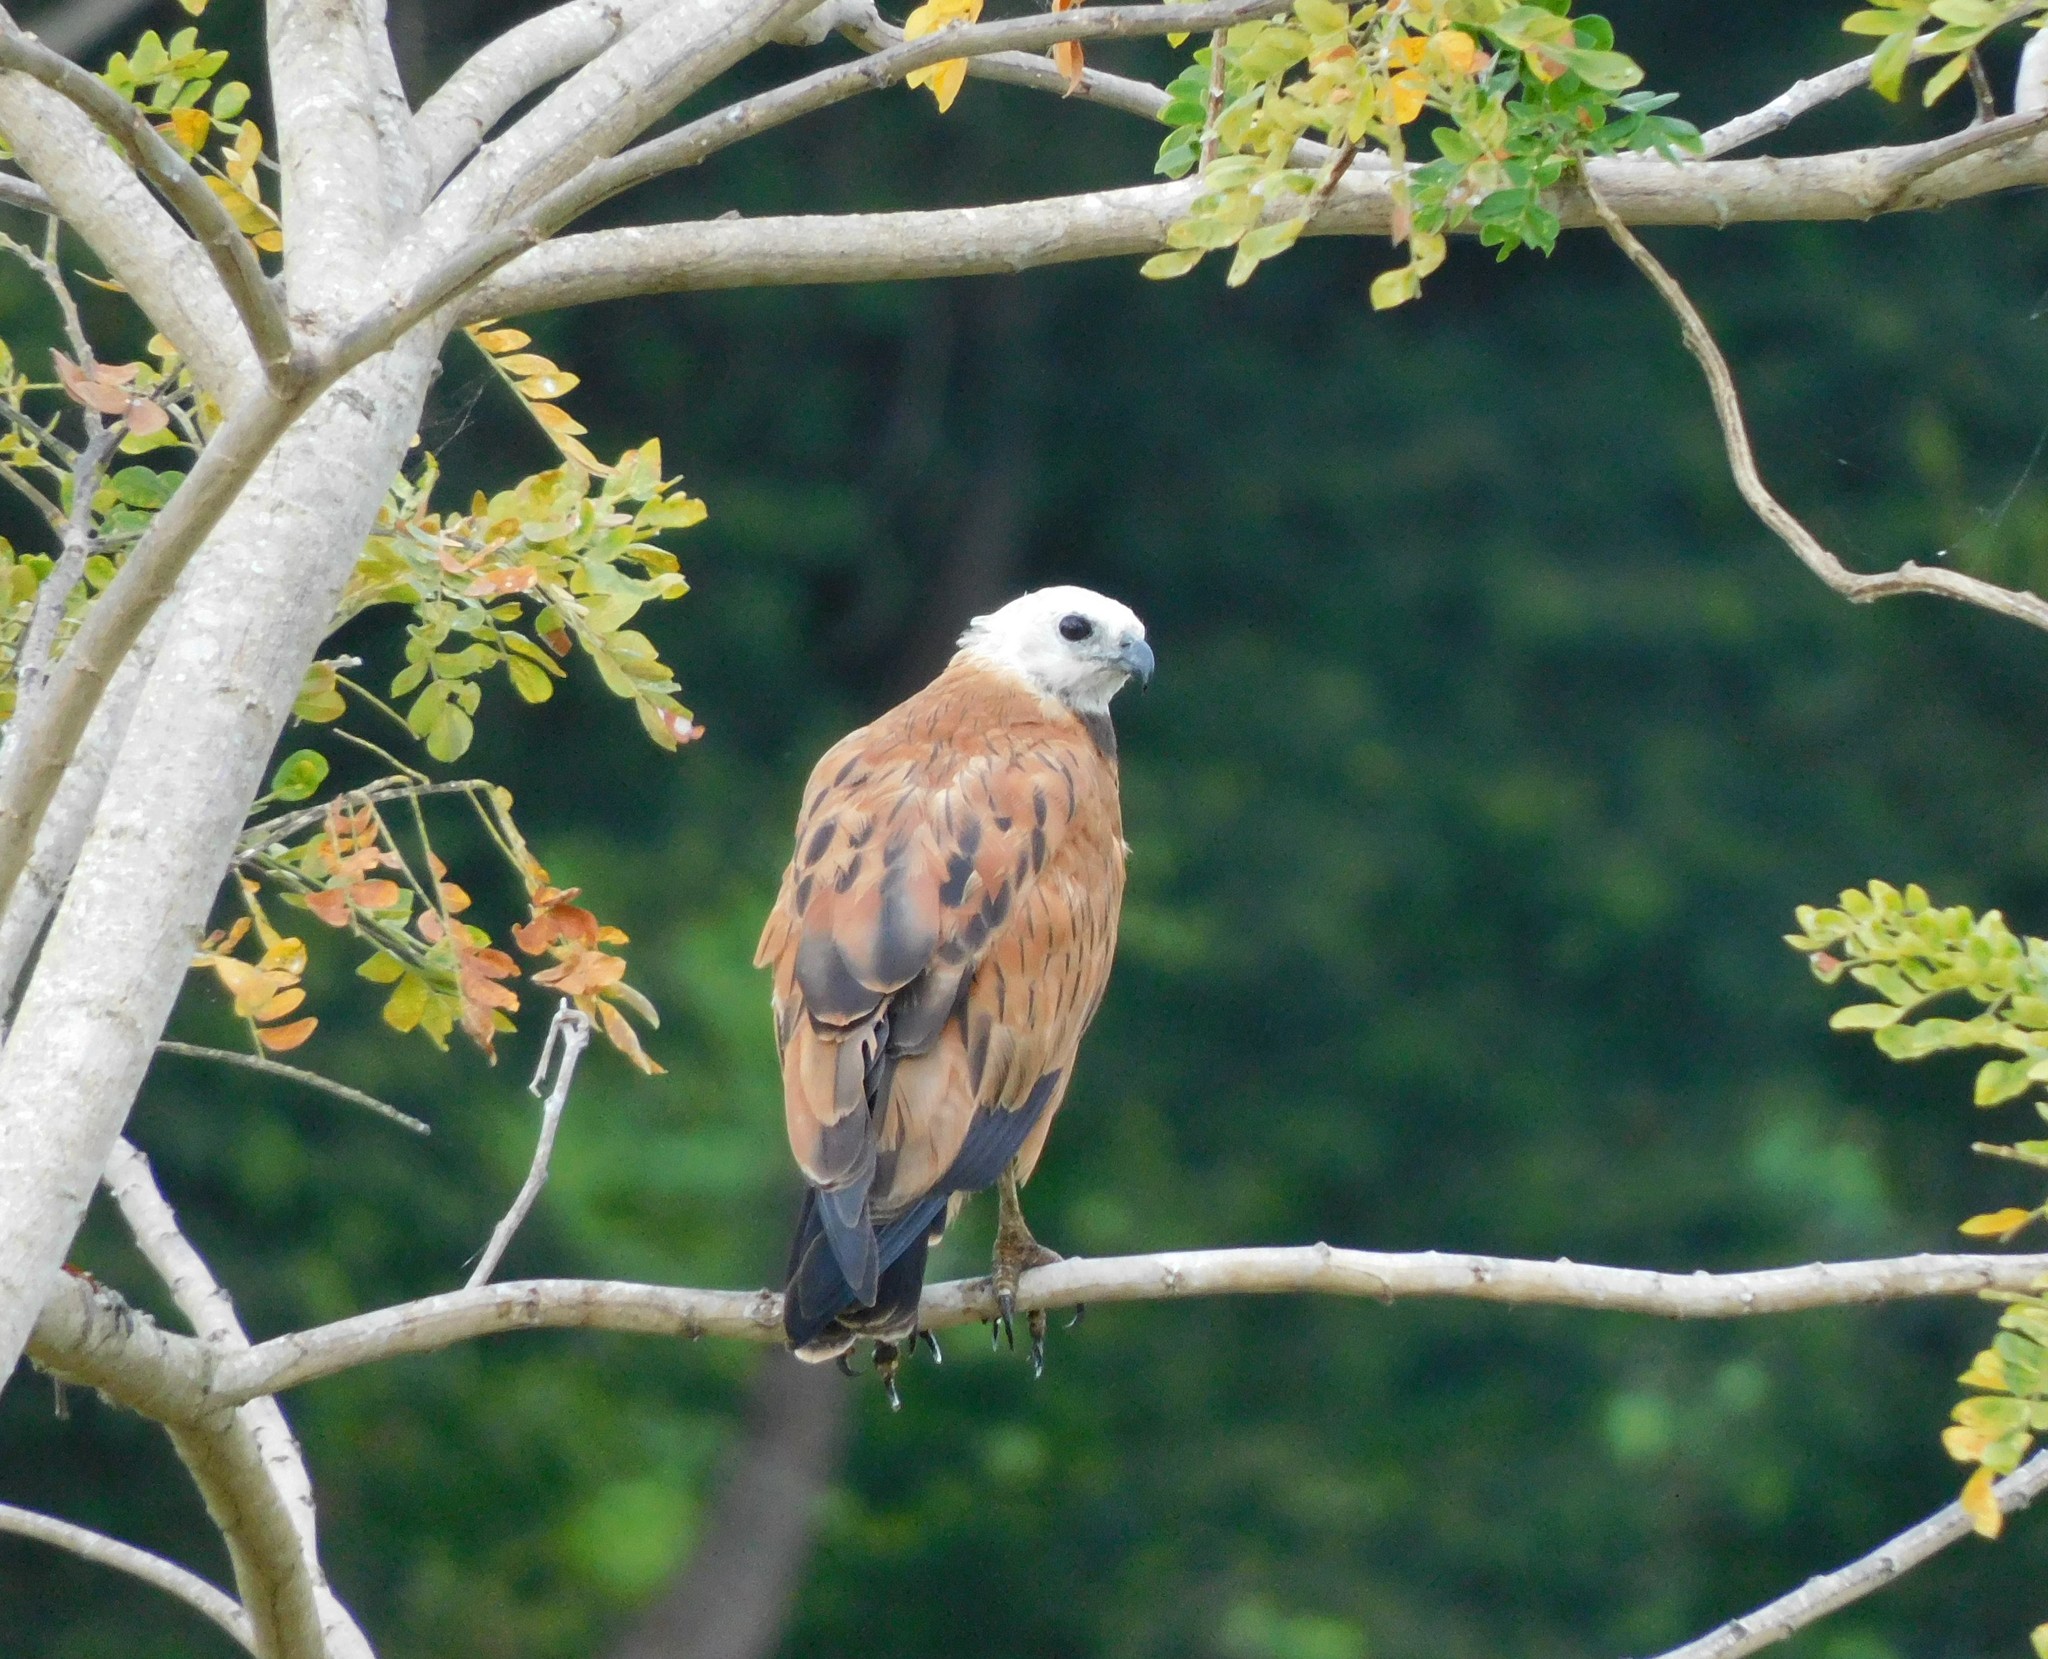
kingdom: Animalia
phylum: Chordata
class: Aves
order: Accipitriformes
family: Accipitridae
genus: Busarellus
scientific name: Busarellus nigricollis
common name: Black-collared hawk
